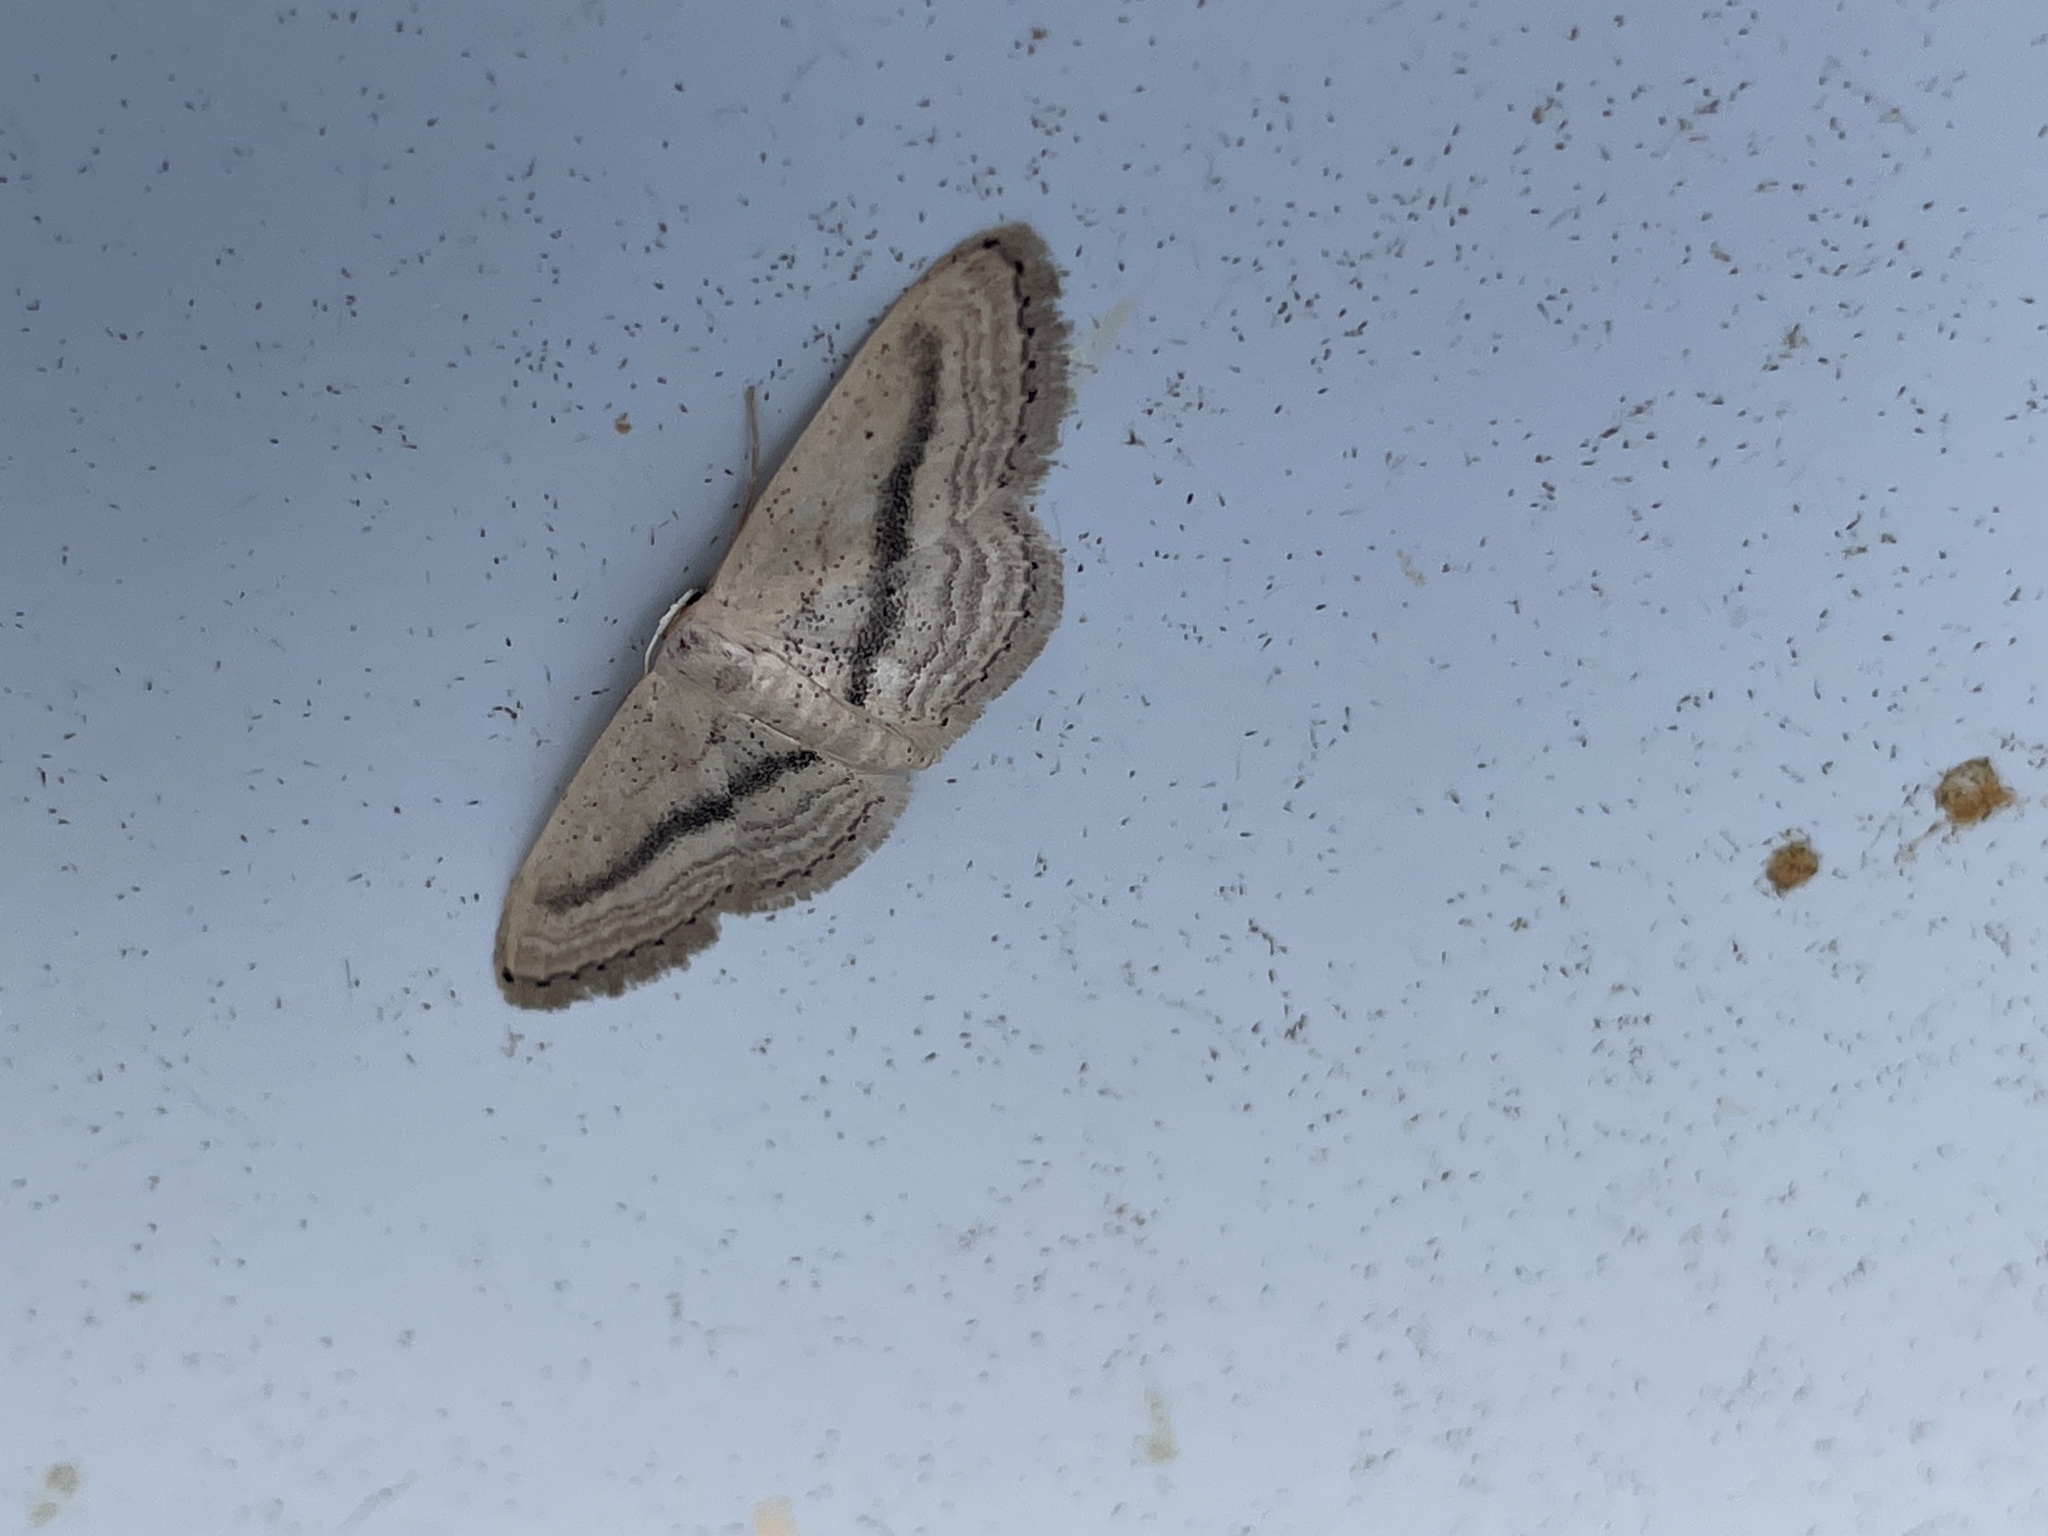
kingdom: Animalia
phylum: Arthropoda
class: Insecta
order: Lepidoptera
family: Geometridae
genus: Idaea
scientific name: Idaea leipnitzi
